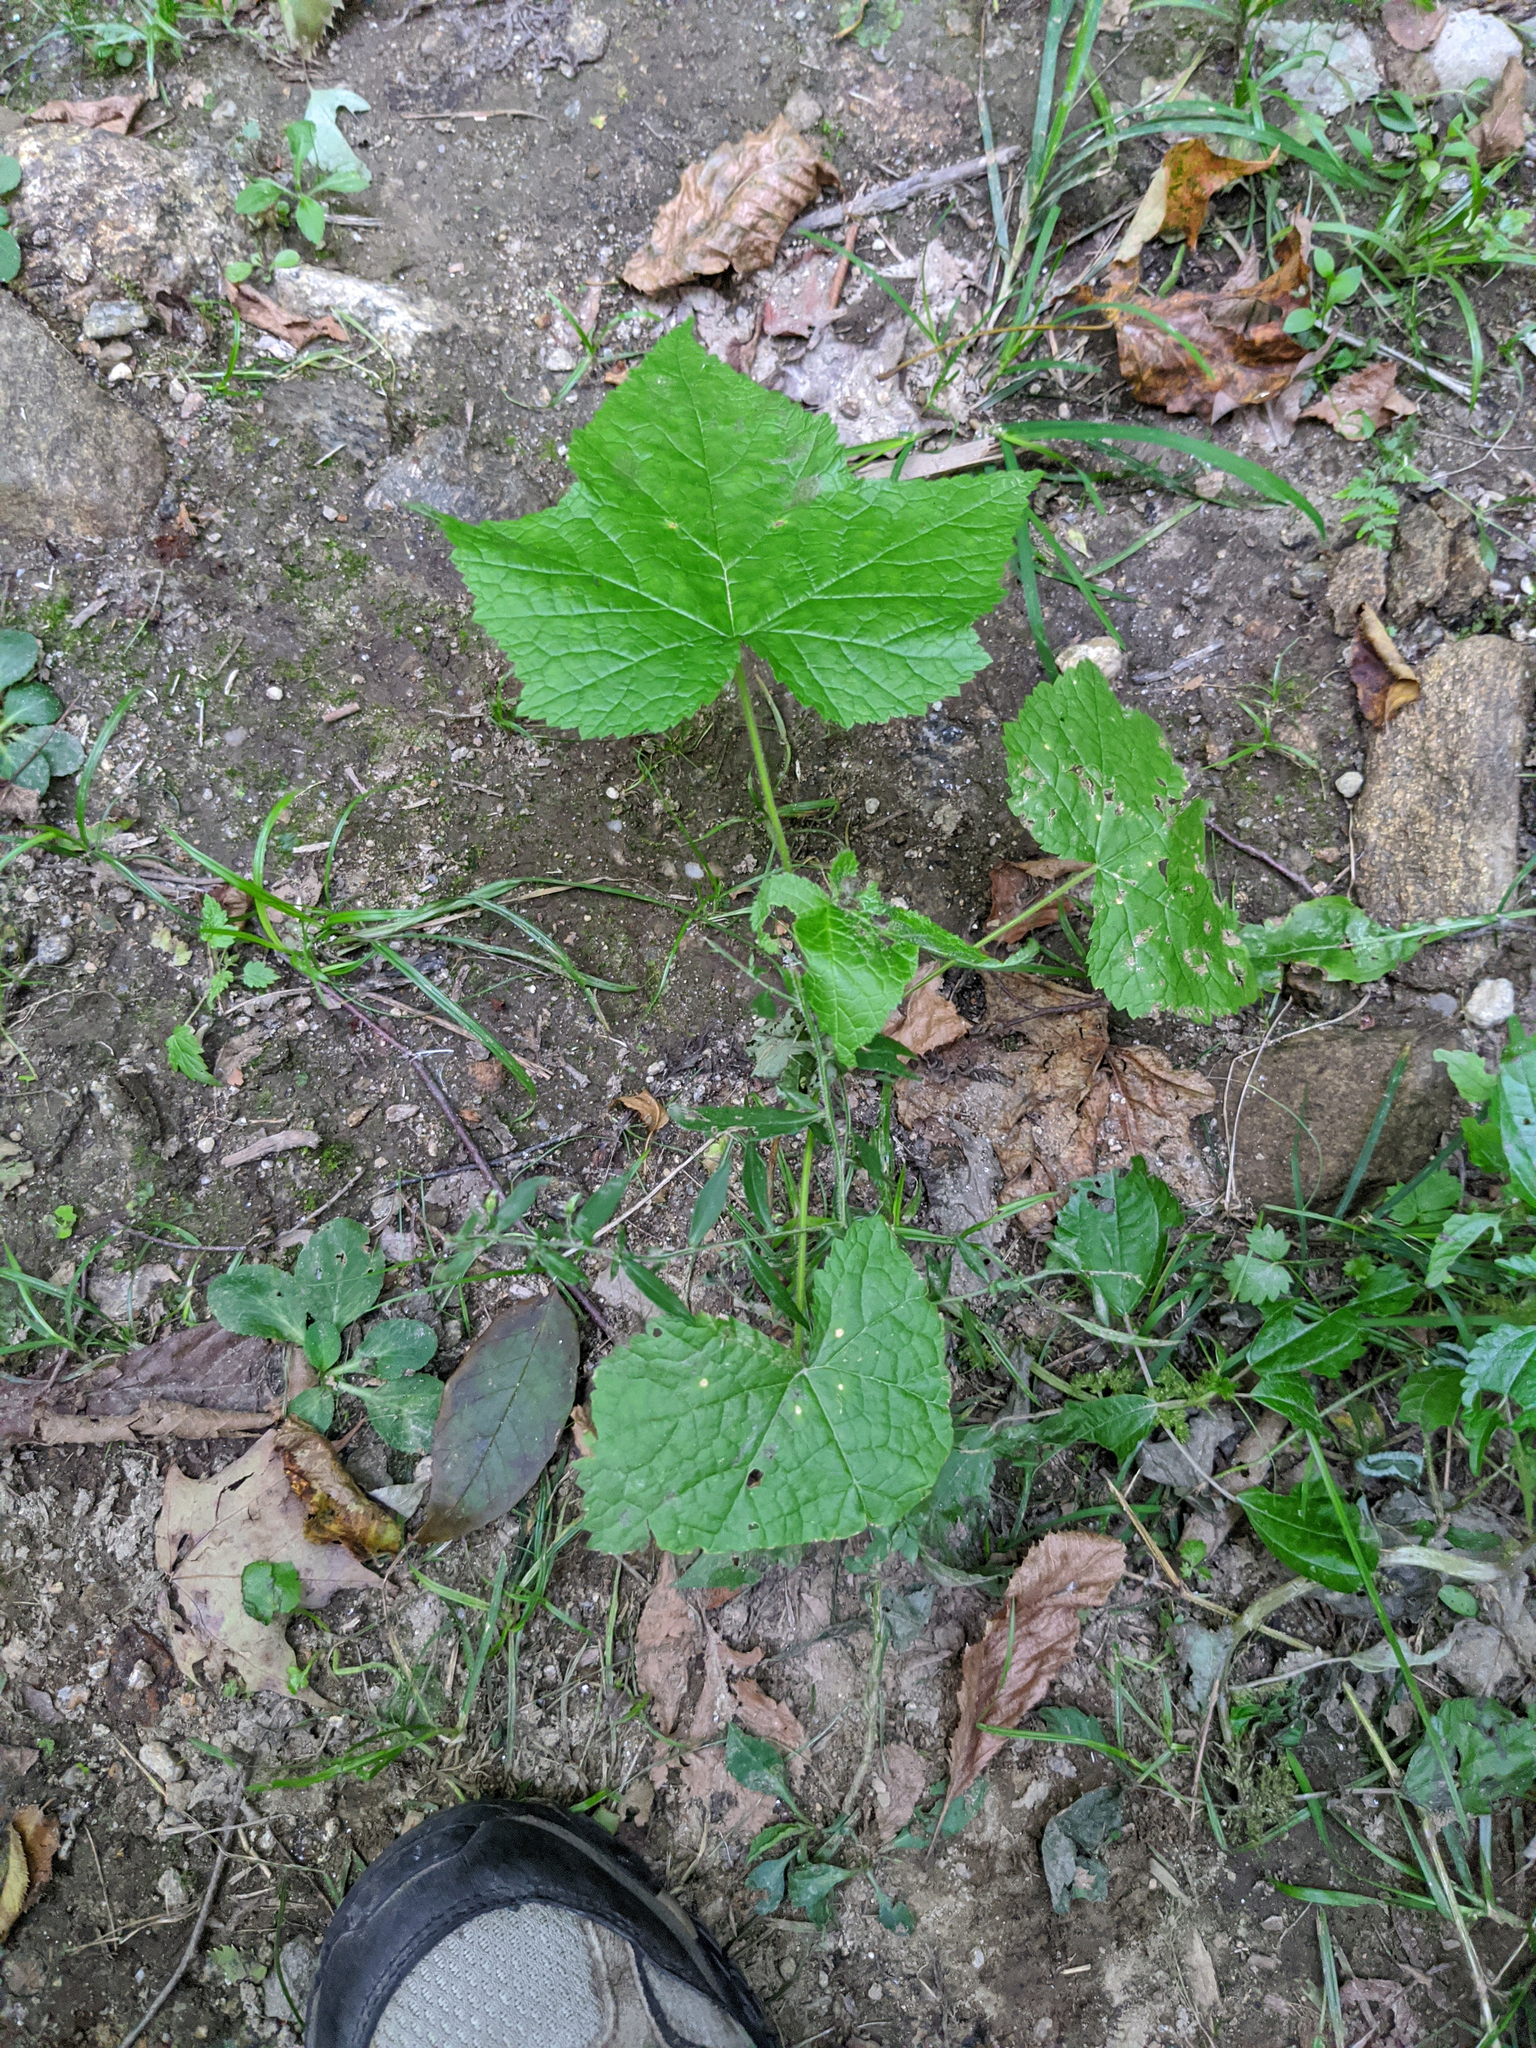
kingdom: Plantae
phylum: Tracheophyta
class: Magnoliopsida
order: Rosales
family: Rosaceae
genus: Rubus
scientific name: Rubus odoratus
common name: Purple-flowered raspberry
